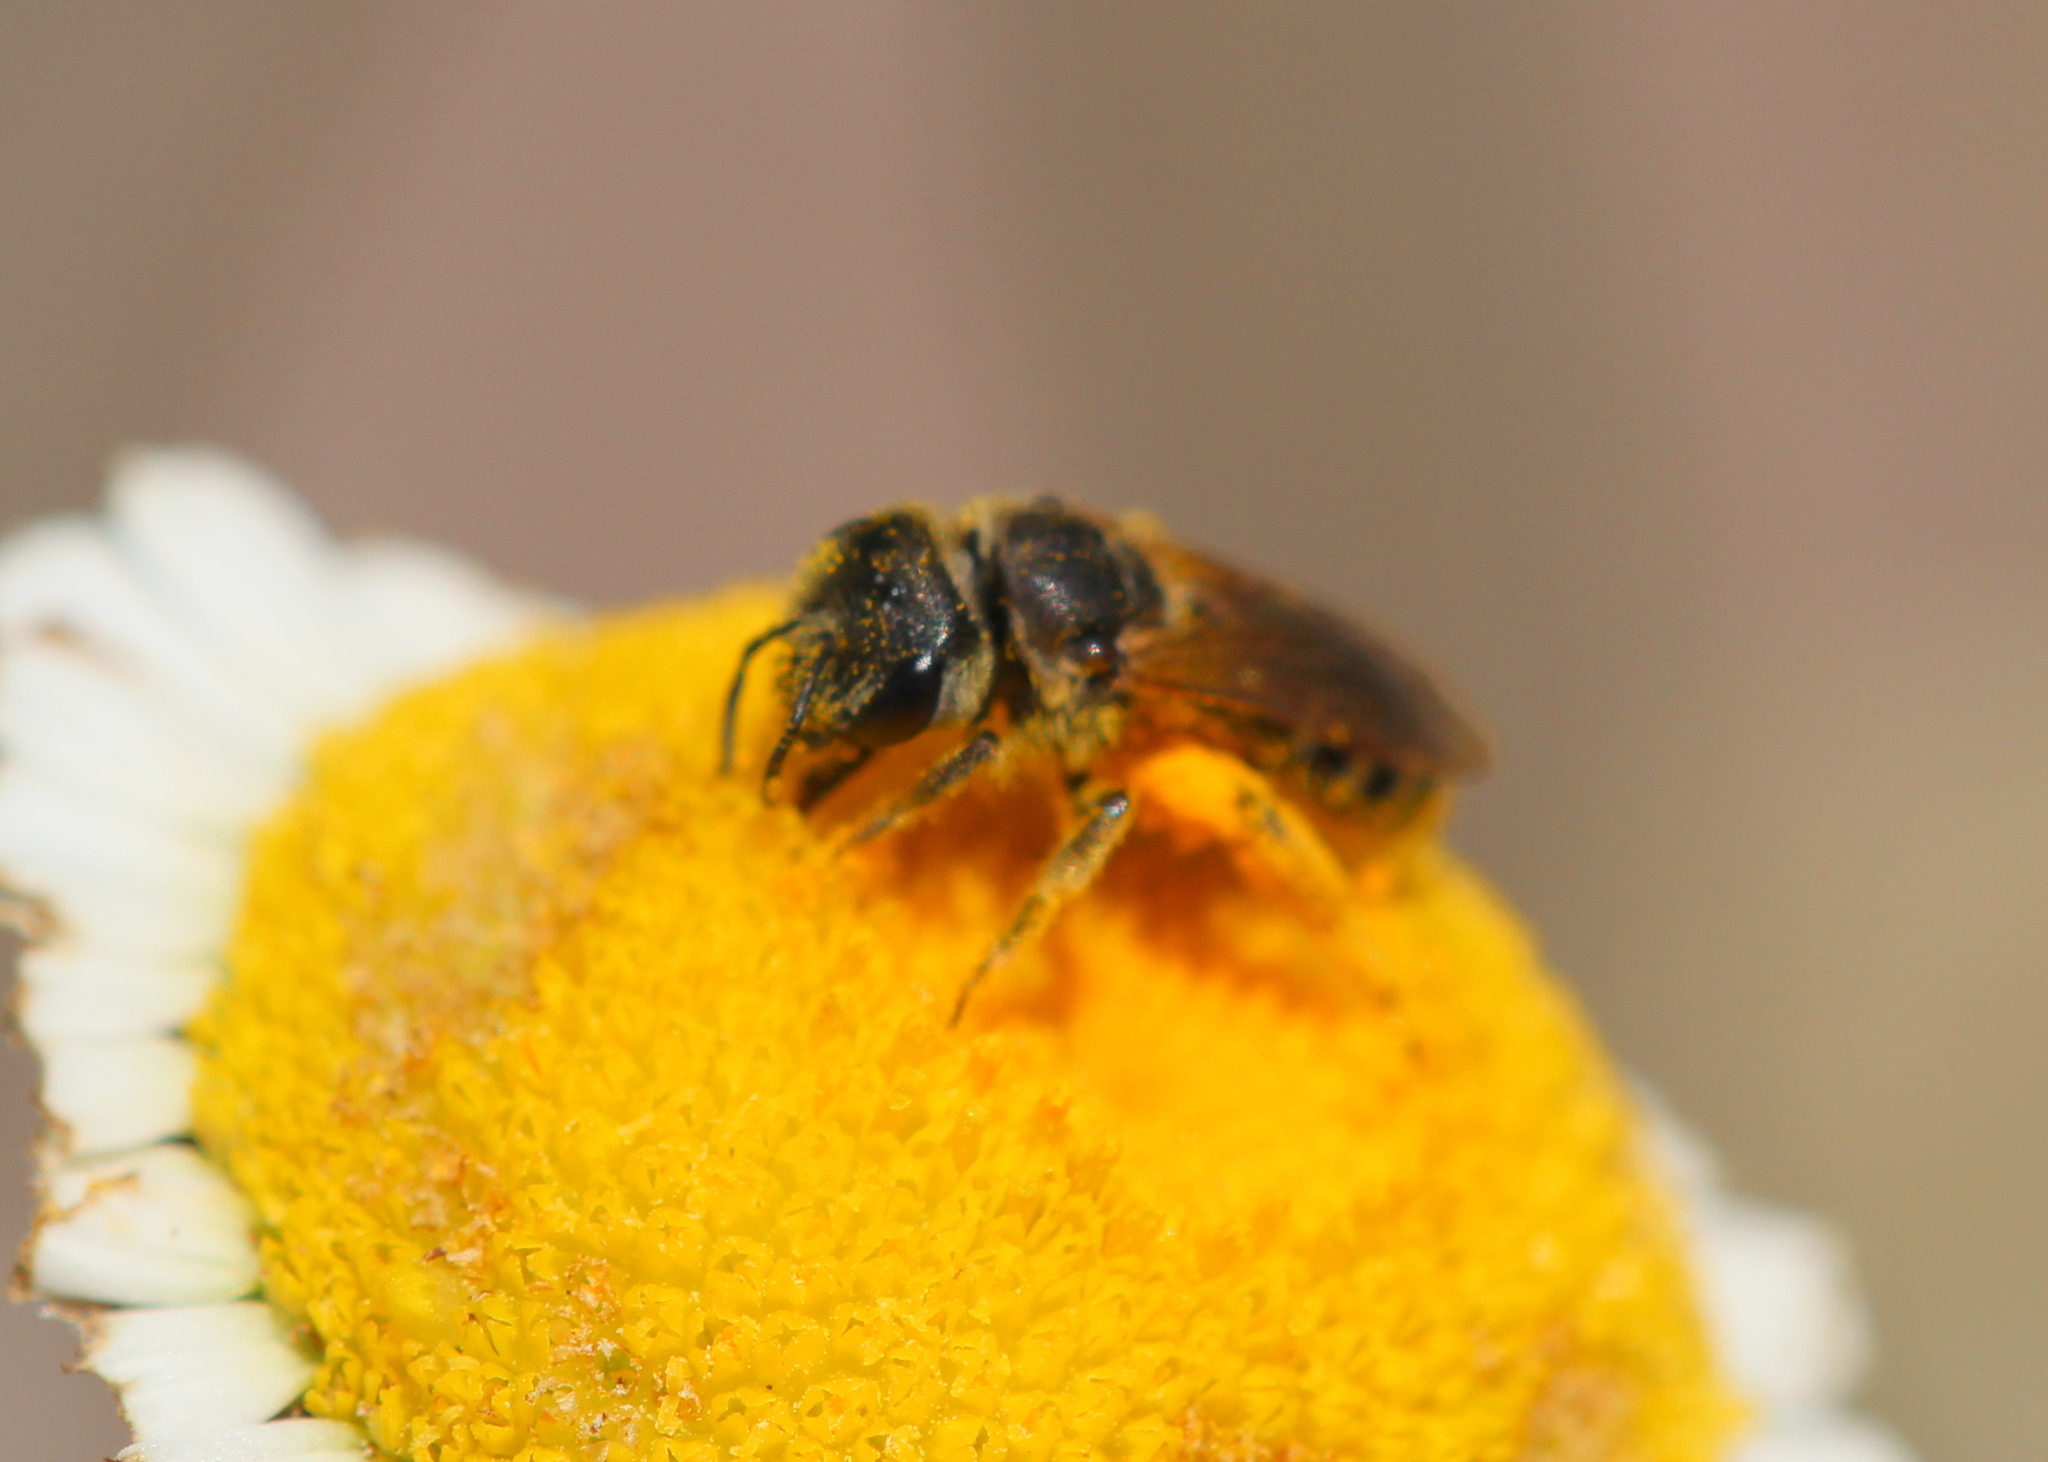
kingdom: Animalia
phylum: Arthropoda
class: Insecta
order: Hymenoptera
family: Halictidae
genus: Halictus
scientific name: Halictus ligatus
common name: Ligated furrow bee
